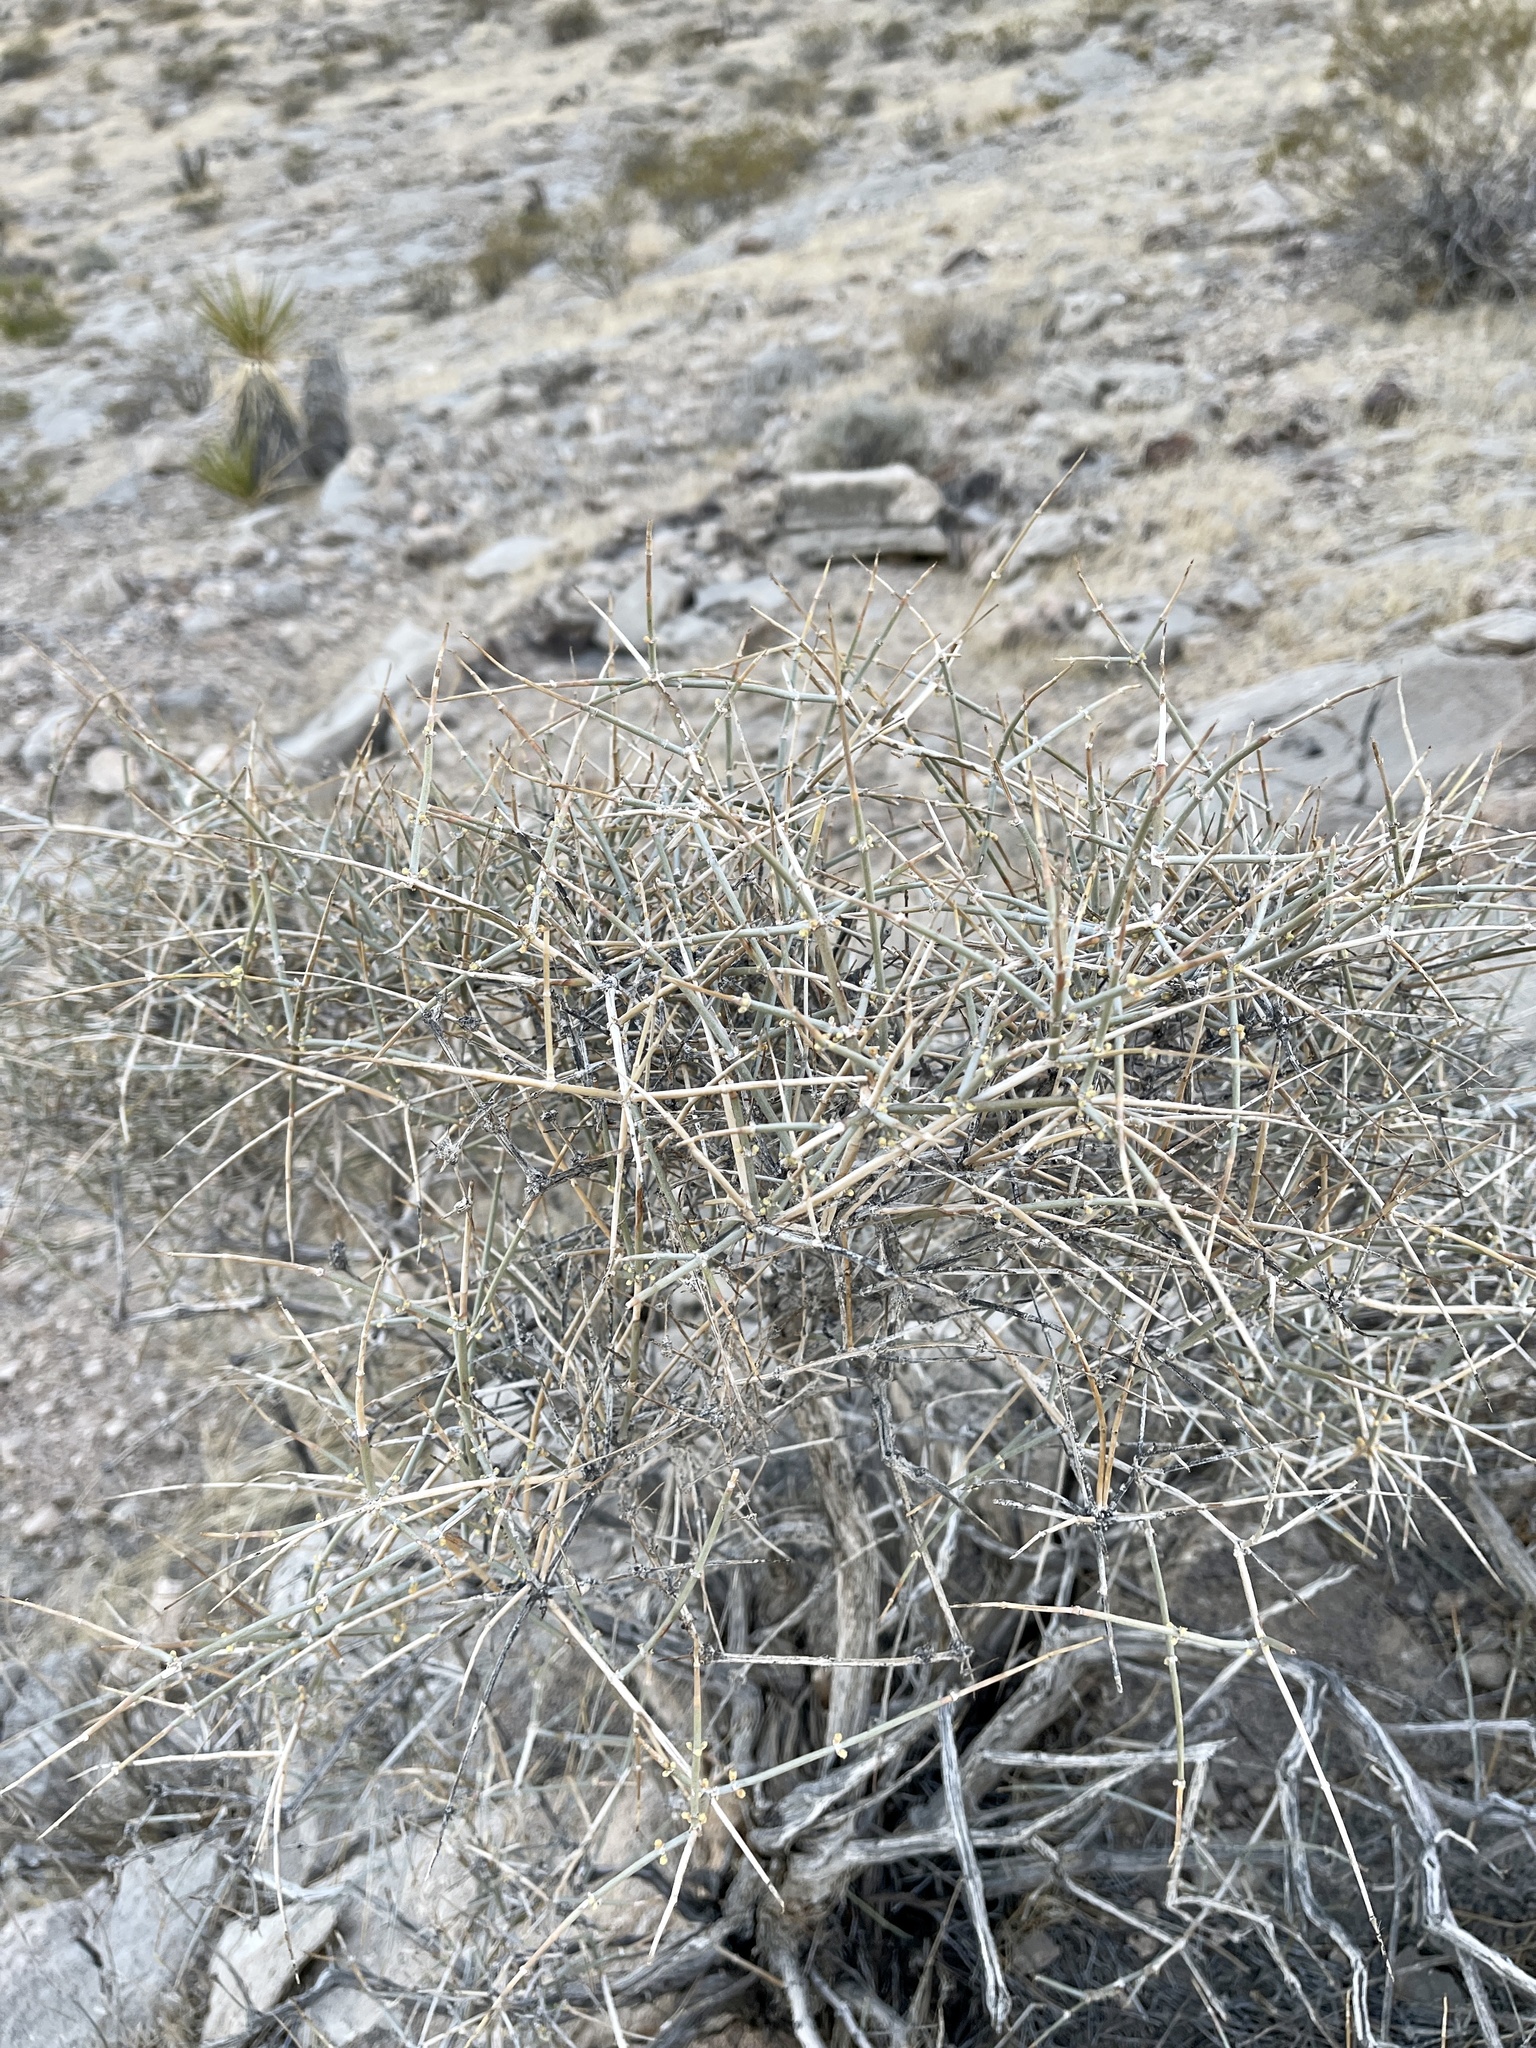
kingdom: Plantae
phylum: Tracheophyta
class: Gnetopsida
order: Ephedrales
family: Ephedraceae
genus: Ephedra
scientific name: Ephedra nevadensis
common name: Gray ephedra
